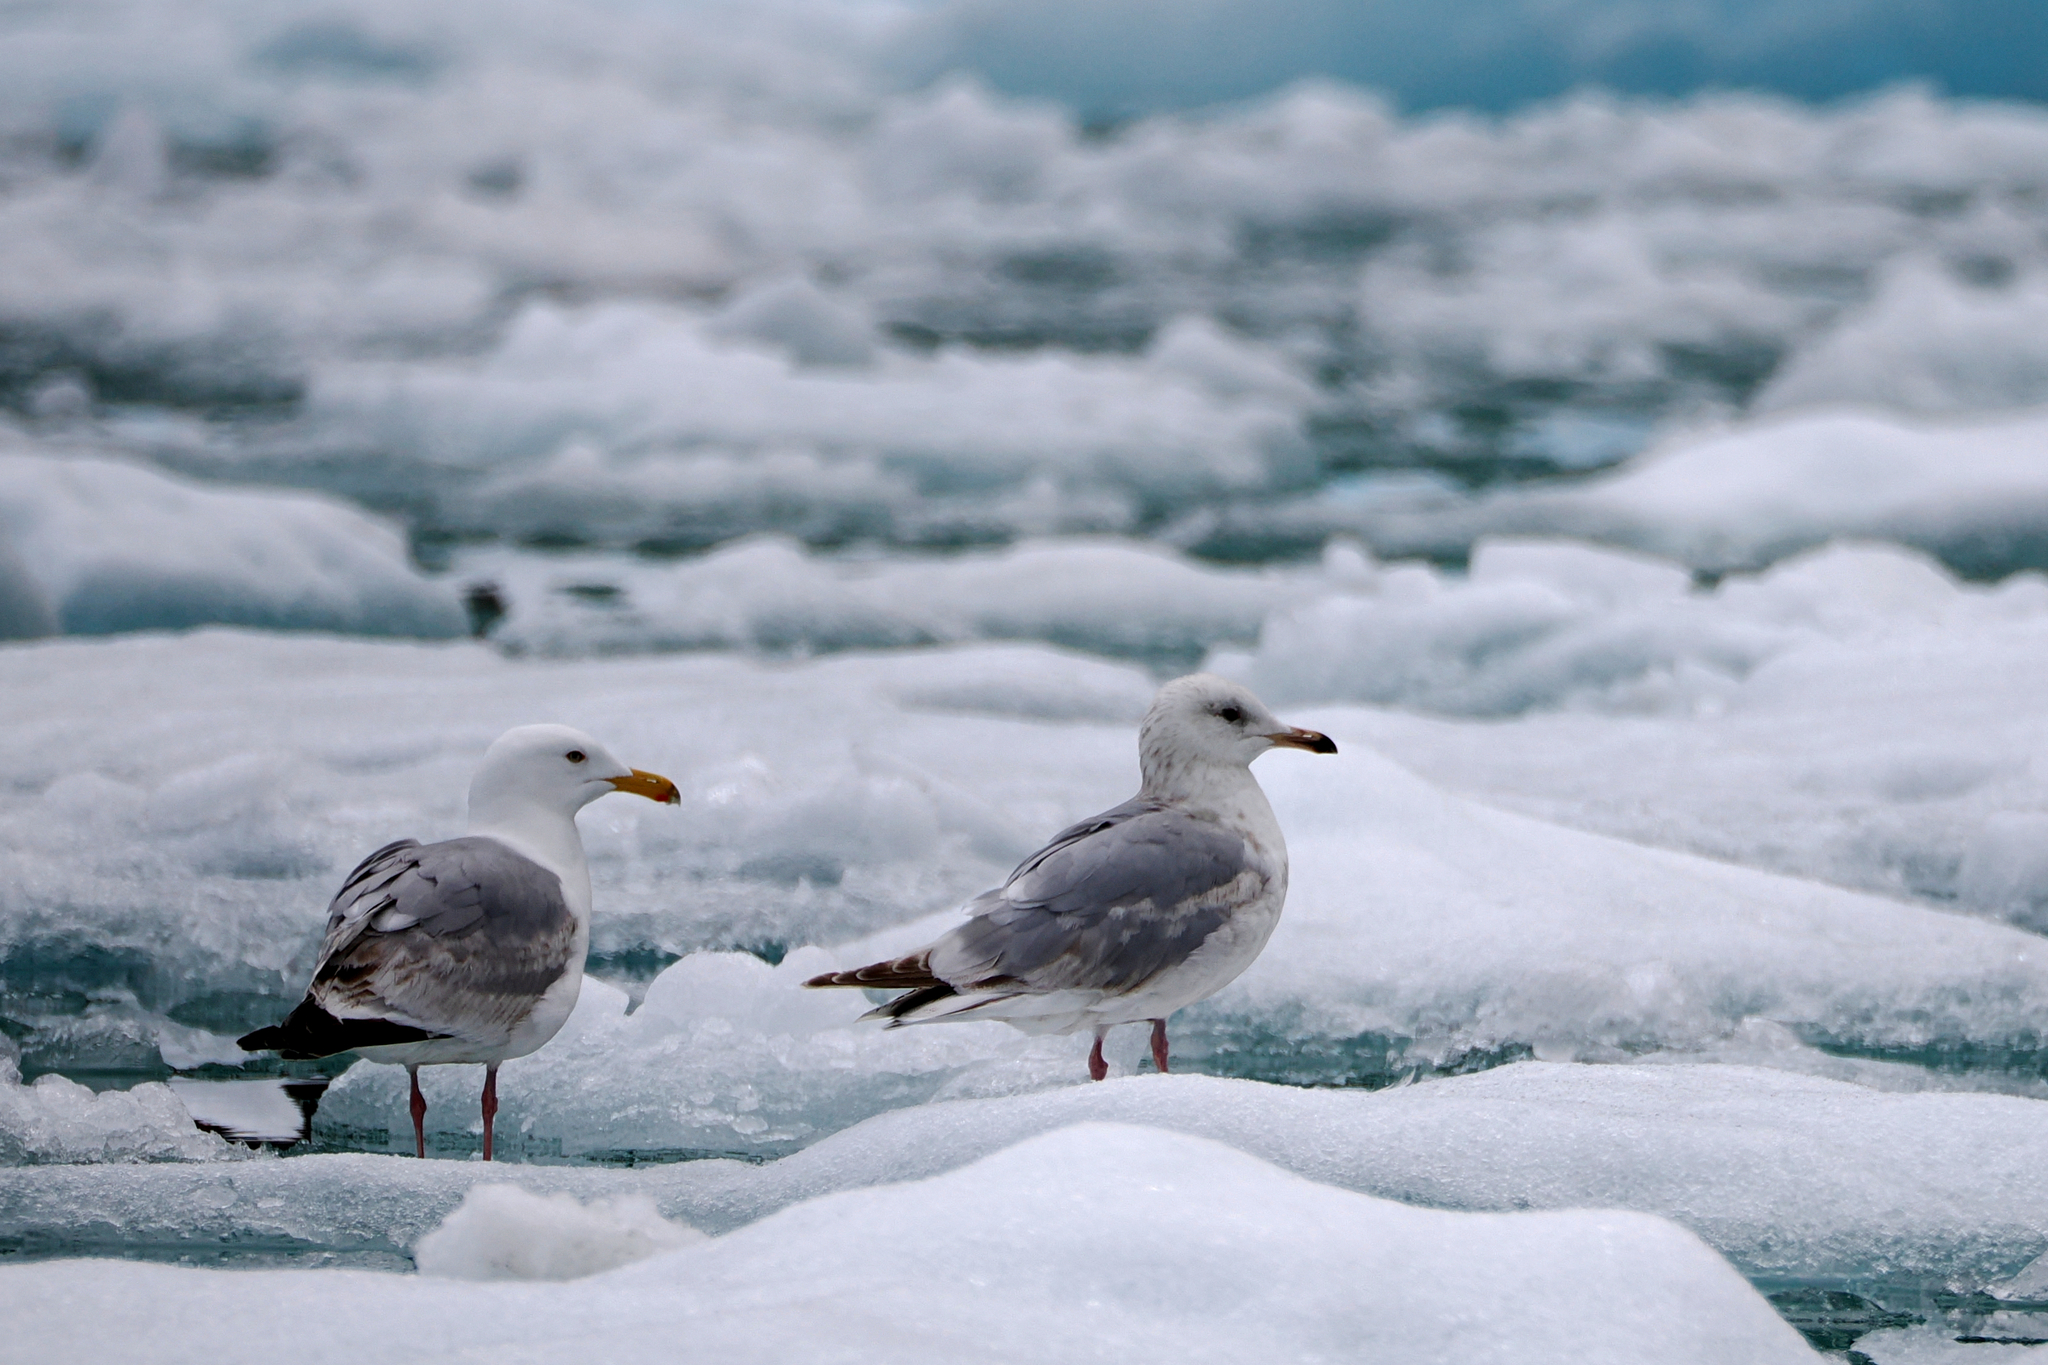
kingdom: Animalia
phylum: Chordata
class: Aves
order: Charadriiformes
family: Laridae
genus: Larus
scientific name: Larus argentatus
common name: Herring gull
